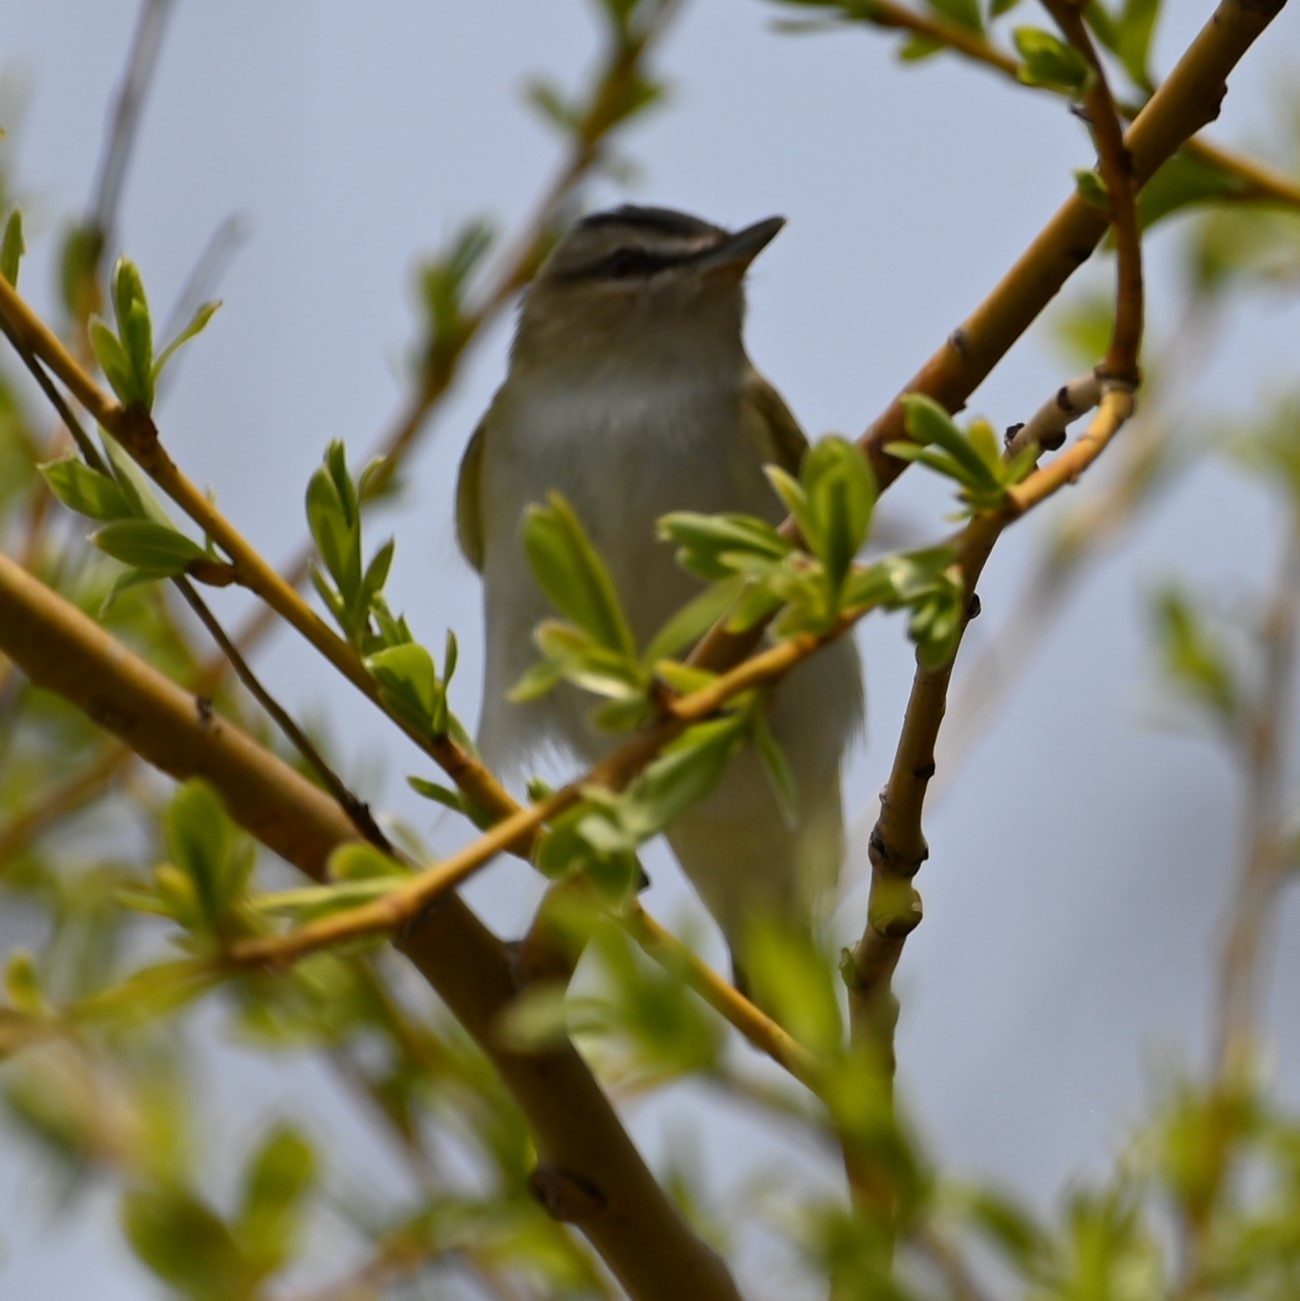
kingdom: Animalia
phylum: Chordata
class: Aves
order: Passeriformes
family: Vireonidae
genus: Vireo
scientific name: Vireo olivaceus
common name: Red-eyed vireo
